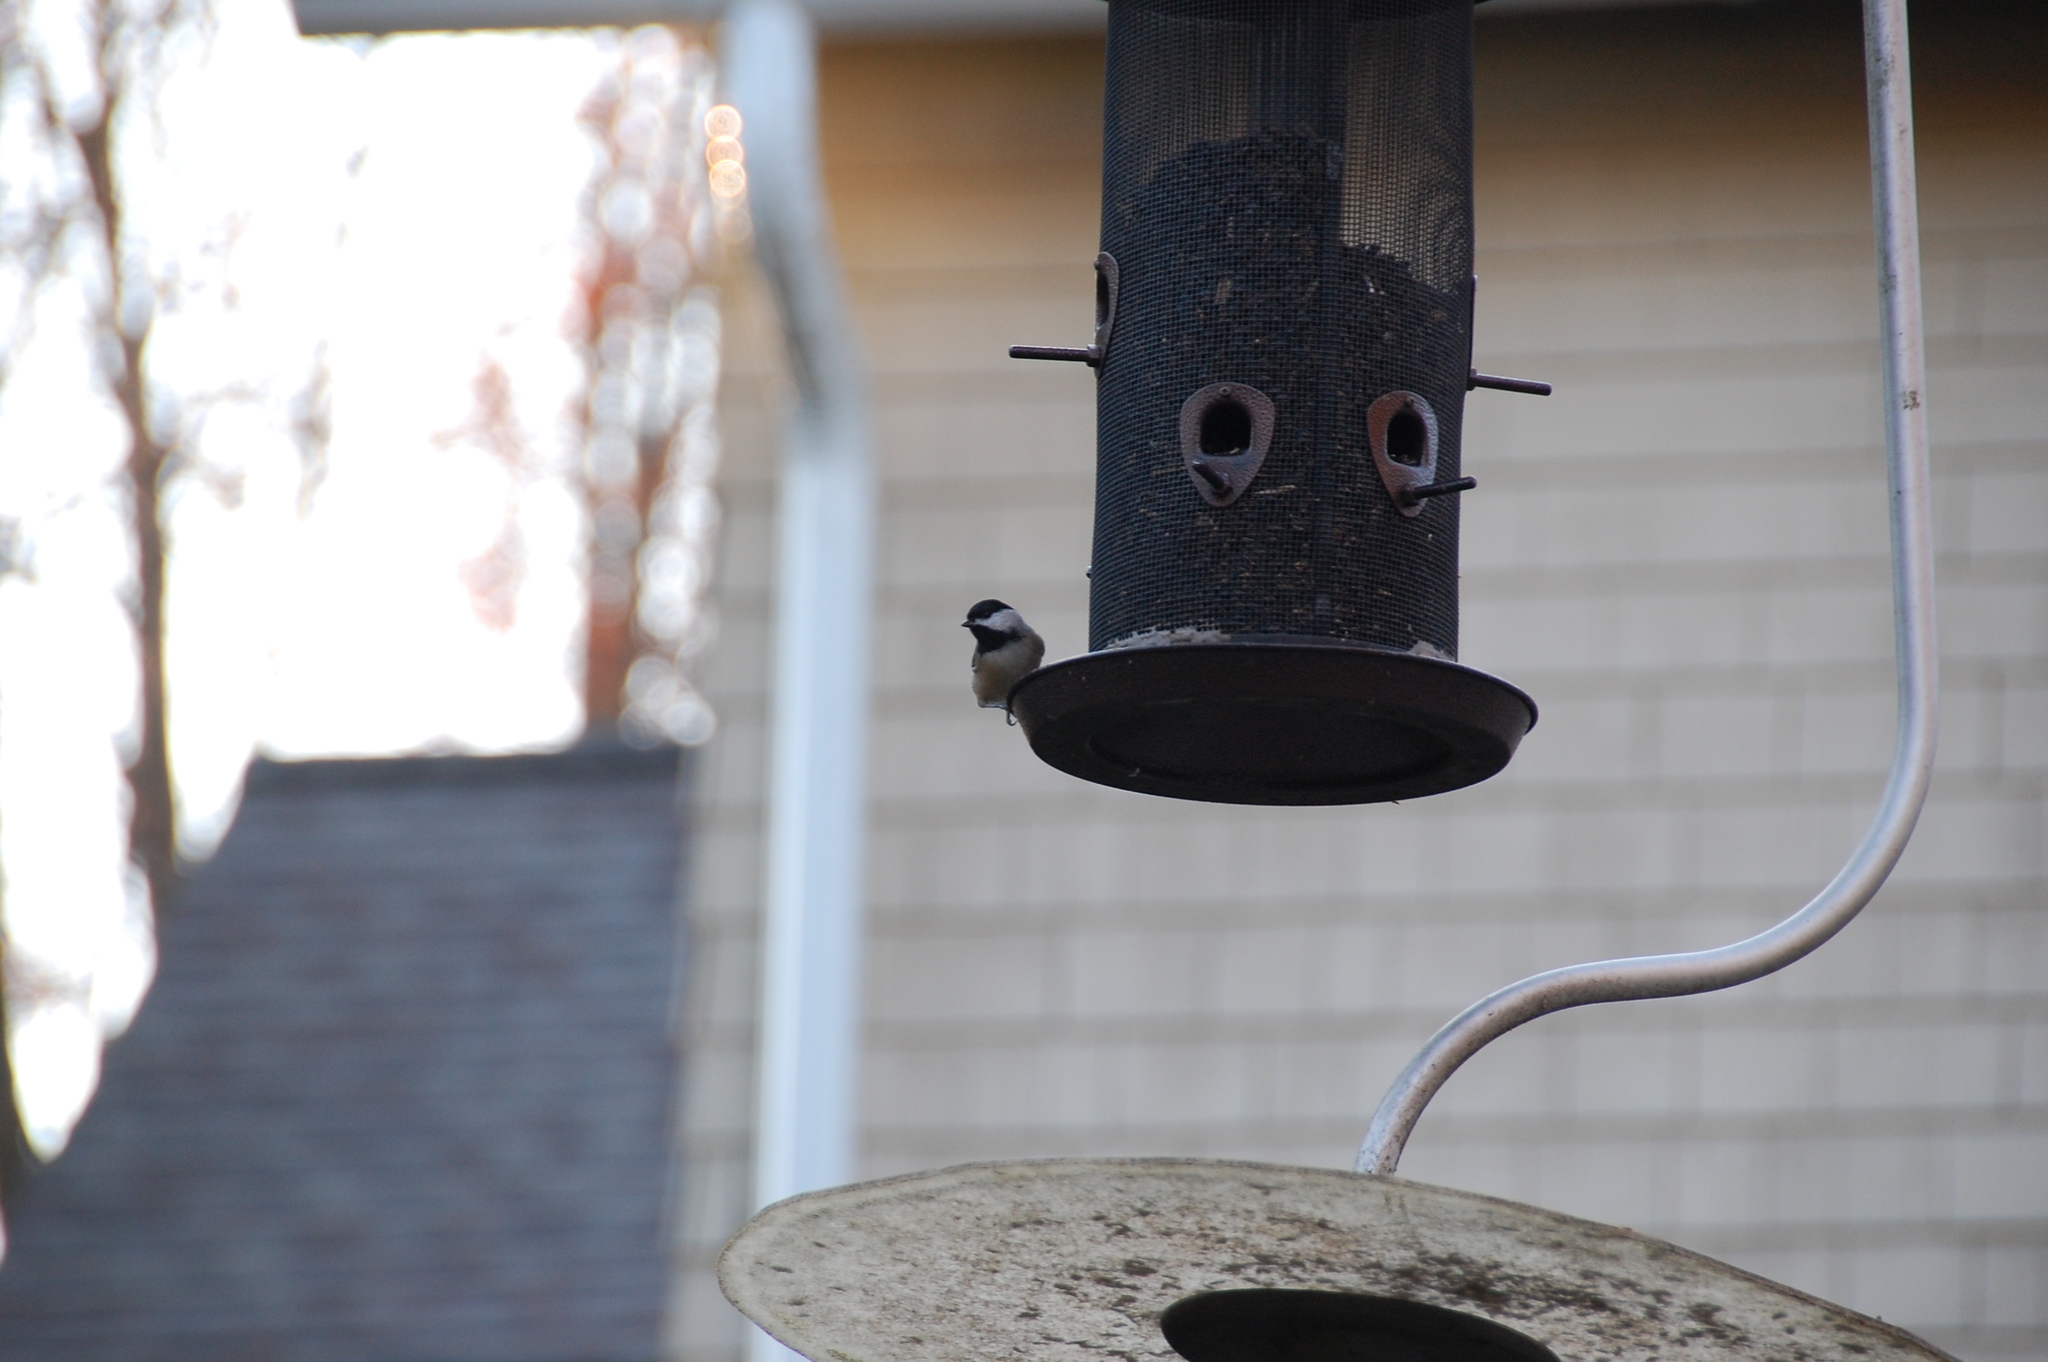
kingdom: Animalia
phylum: Chordata
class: Aves
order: Passeriformes
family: Paridae
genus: Poecile
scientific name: Poecile carolinensis
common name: Carolina chickadee
